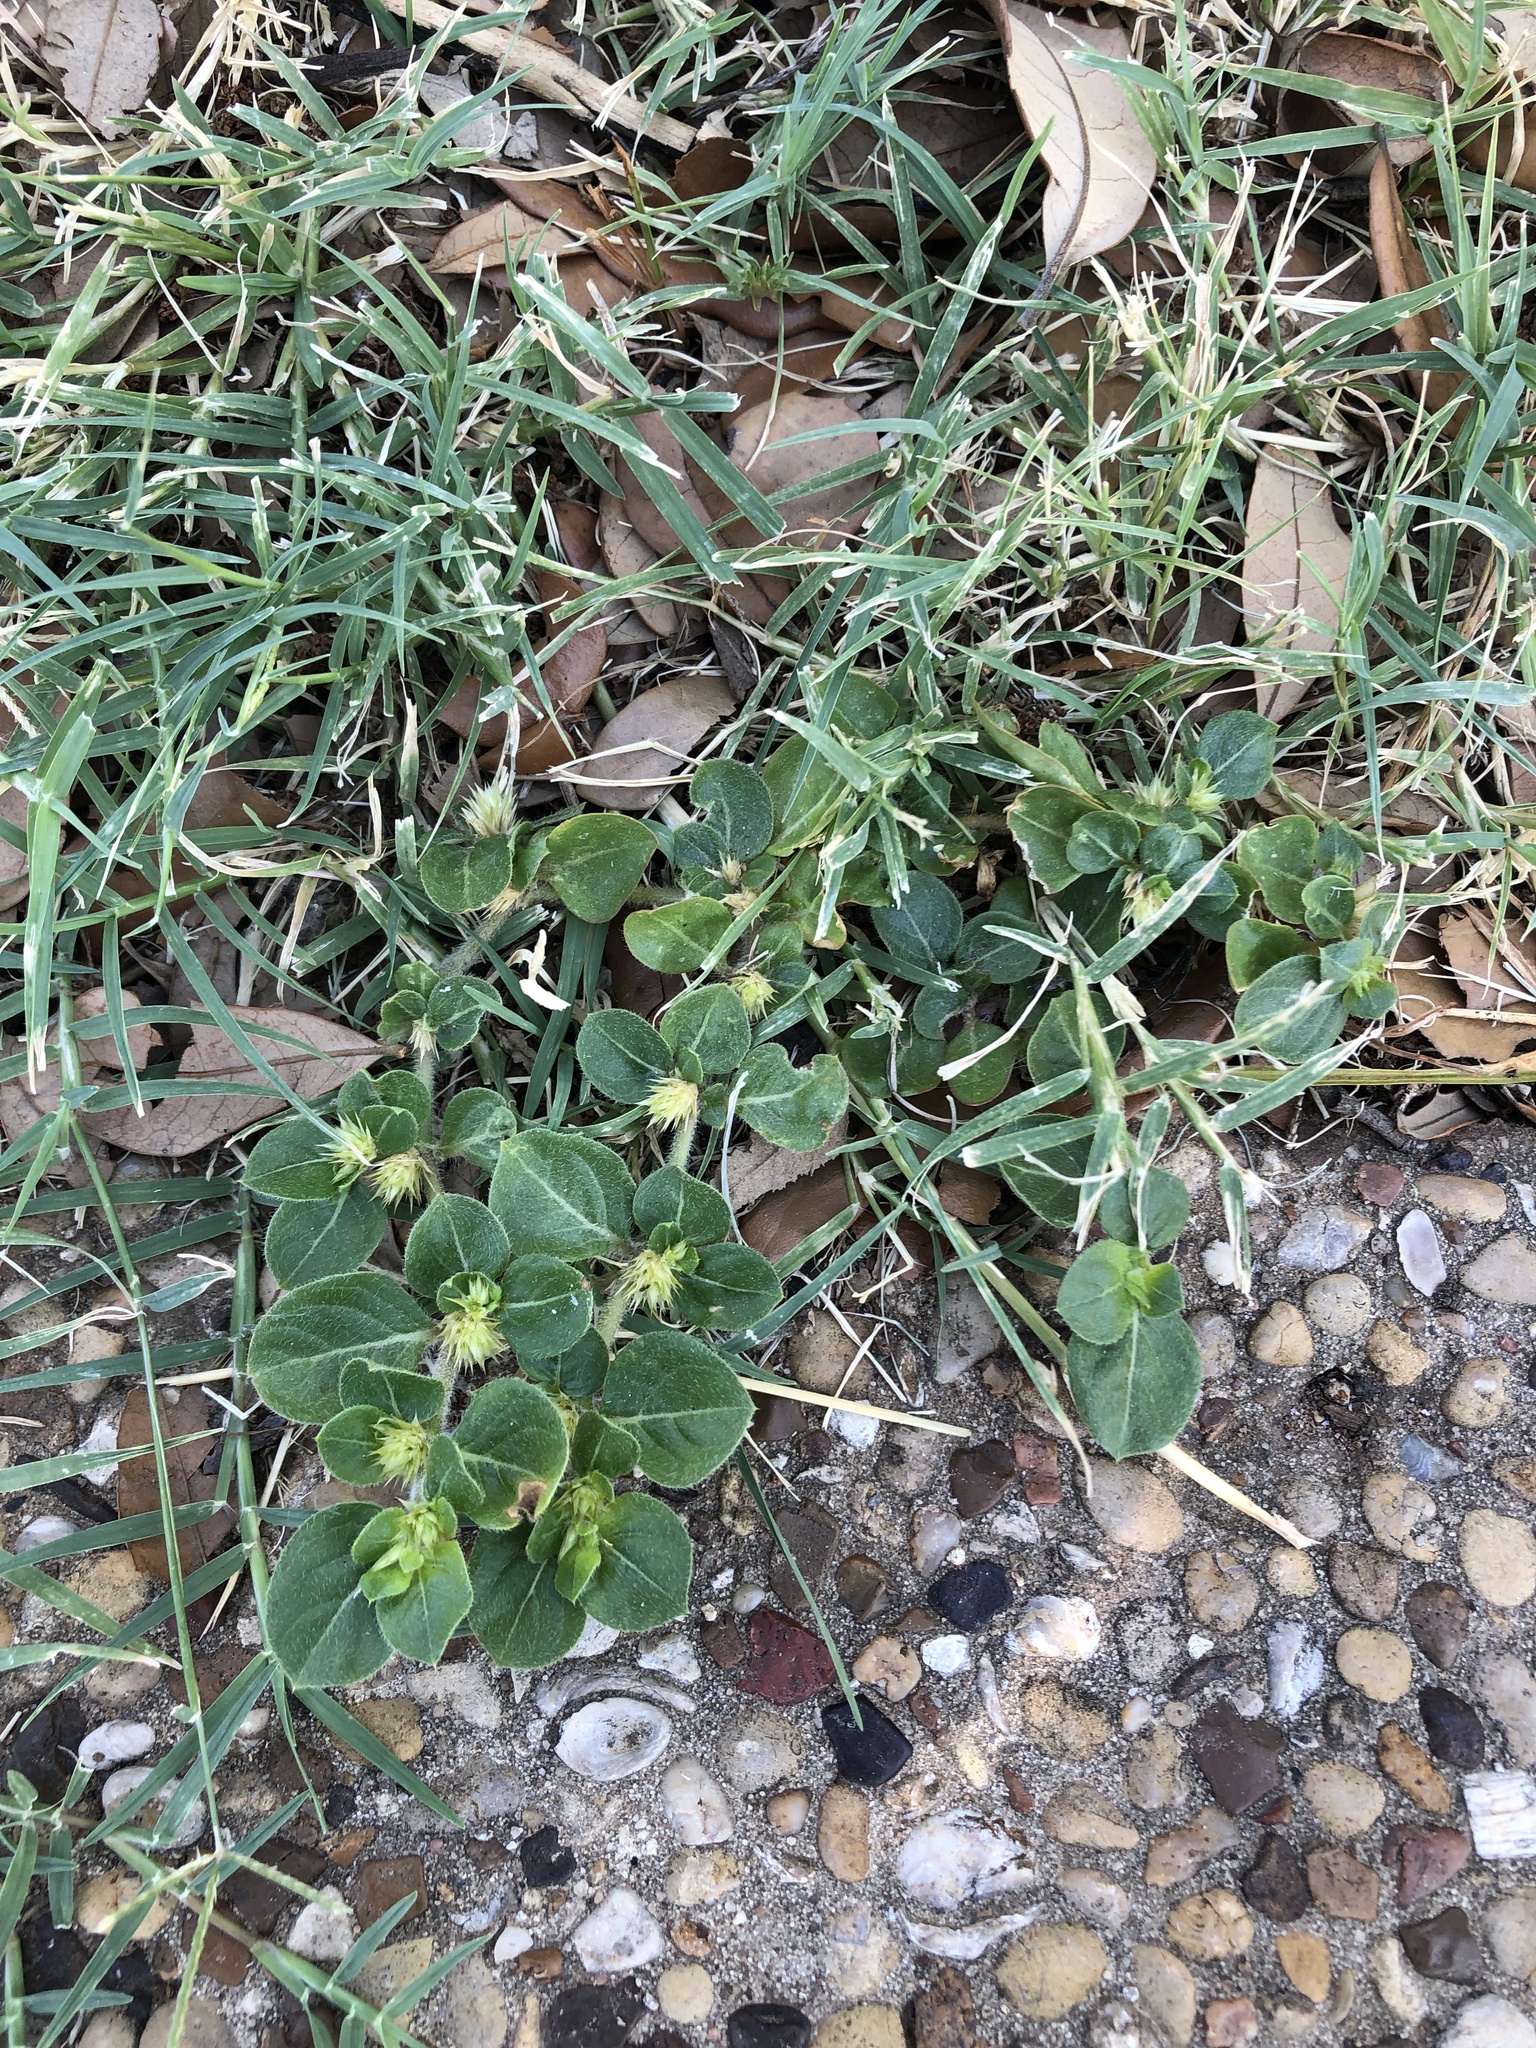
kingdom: Plantae
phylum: Tracheophyta
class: Magnoliopsida
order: Caryophyllales
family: Amaranthaceae
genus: Alternanthera
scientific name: Alternanthera pungens
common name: Khakiweed
